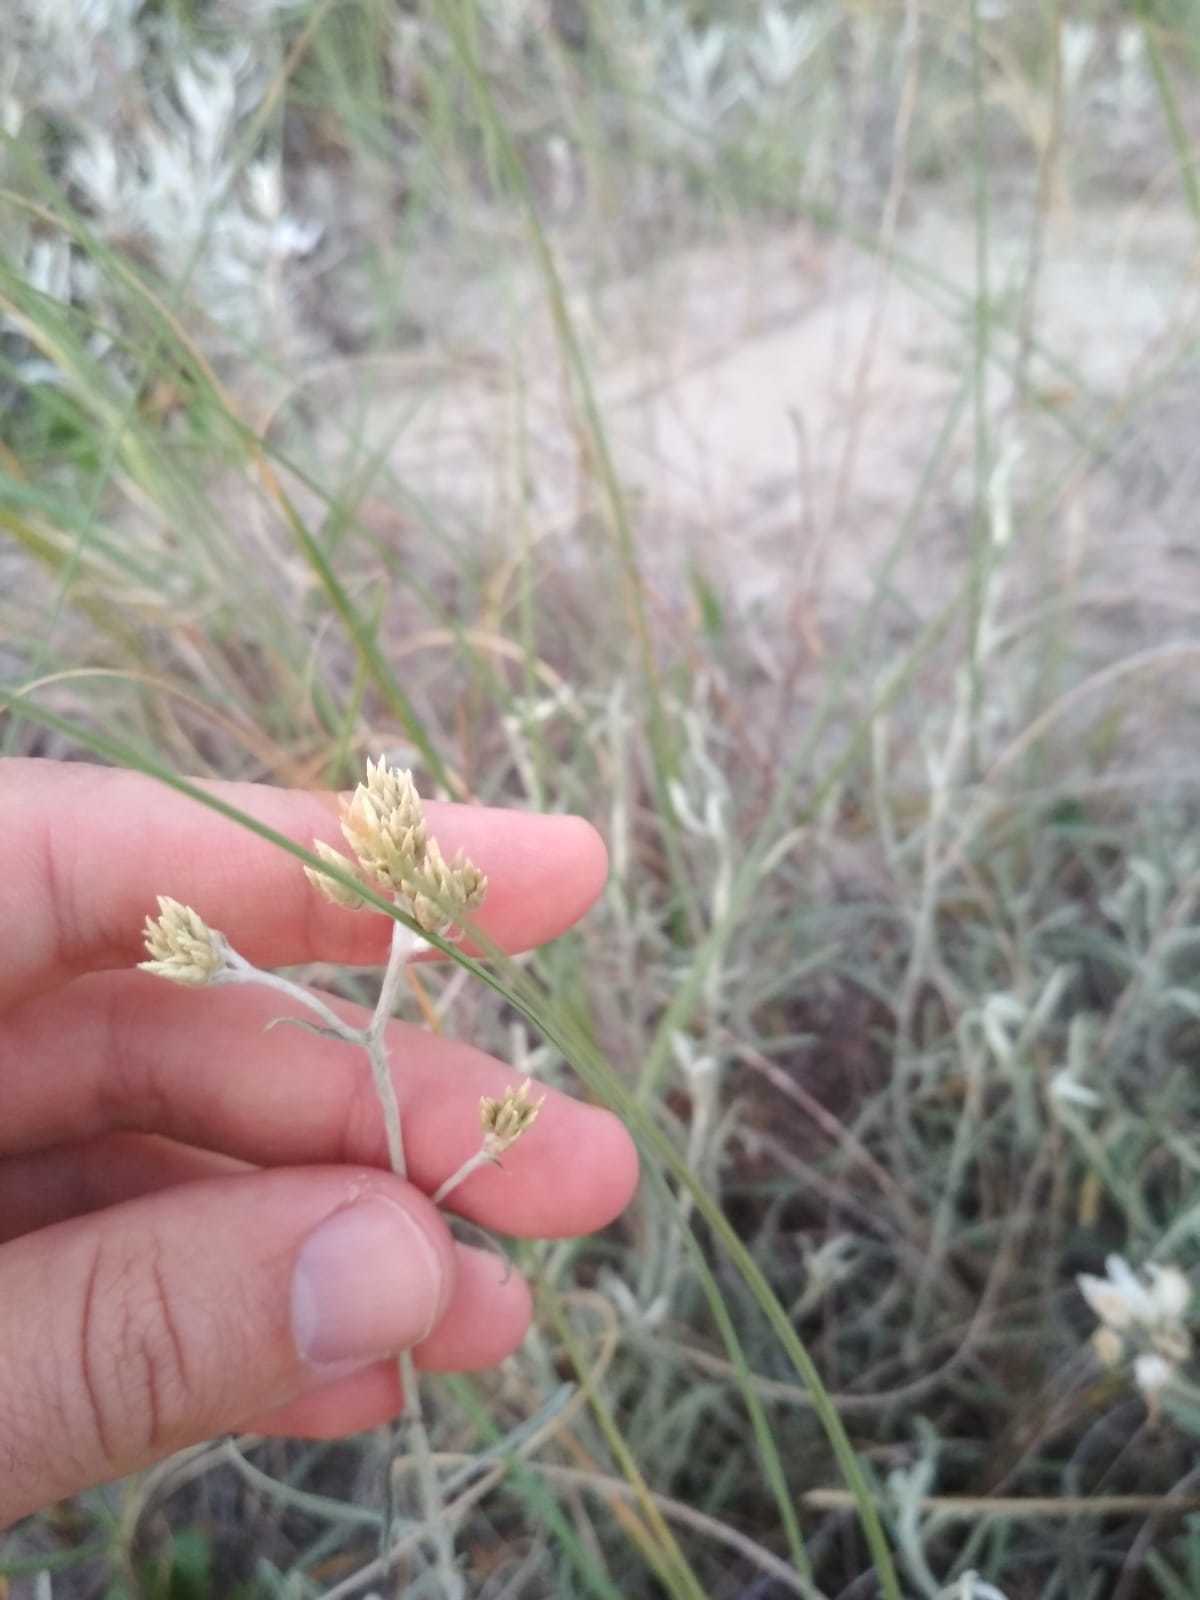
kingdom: Plantae
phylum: Tracheophyta
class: Magnoliopsida
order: Asterales
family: Asteraceae
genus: Achyrocline
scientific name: Achyrocline satureioides
